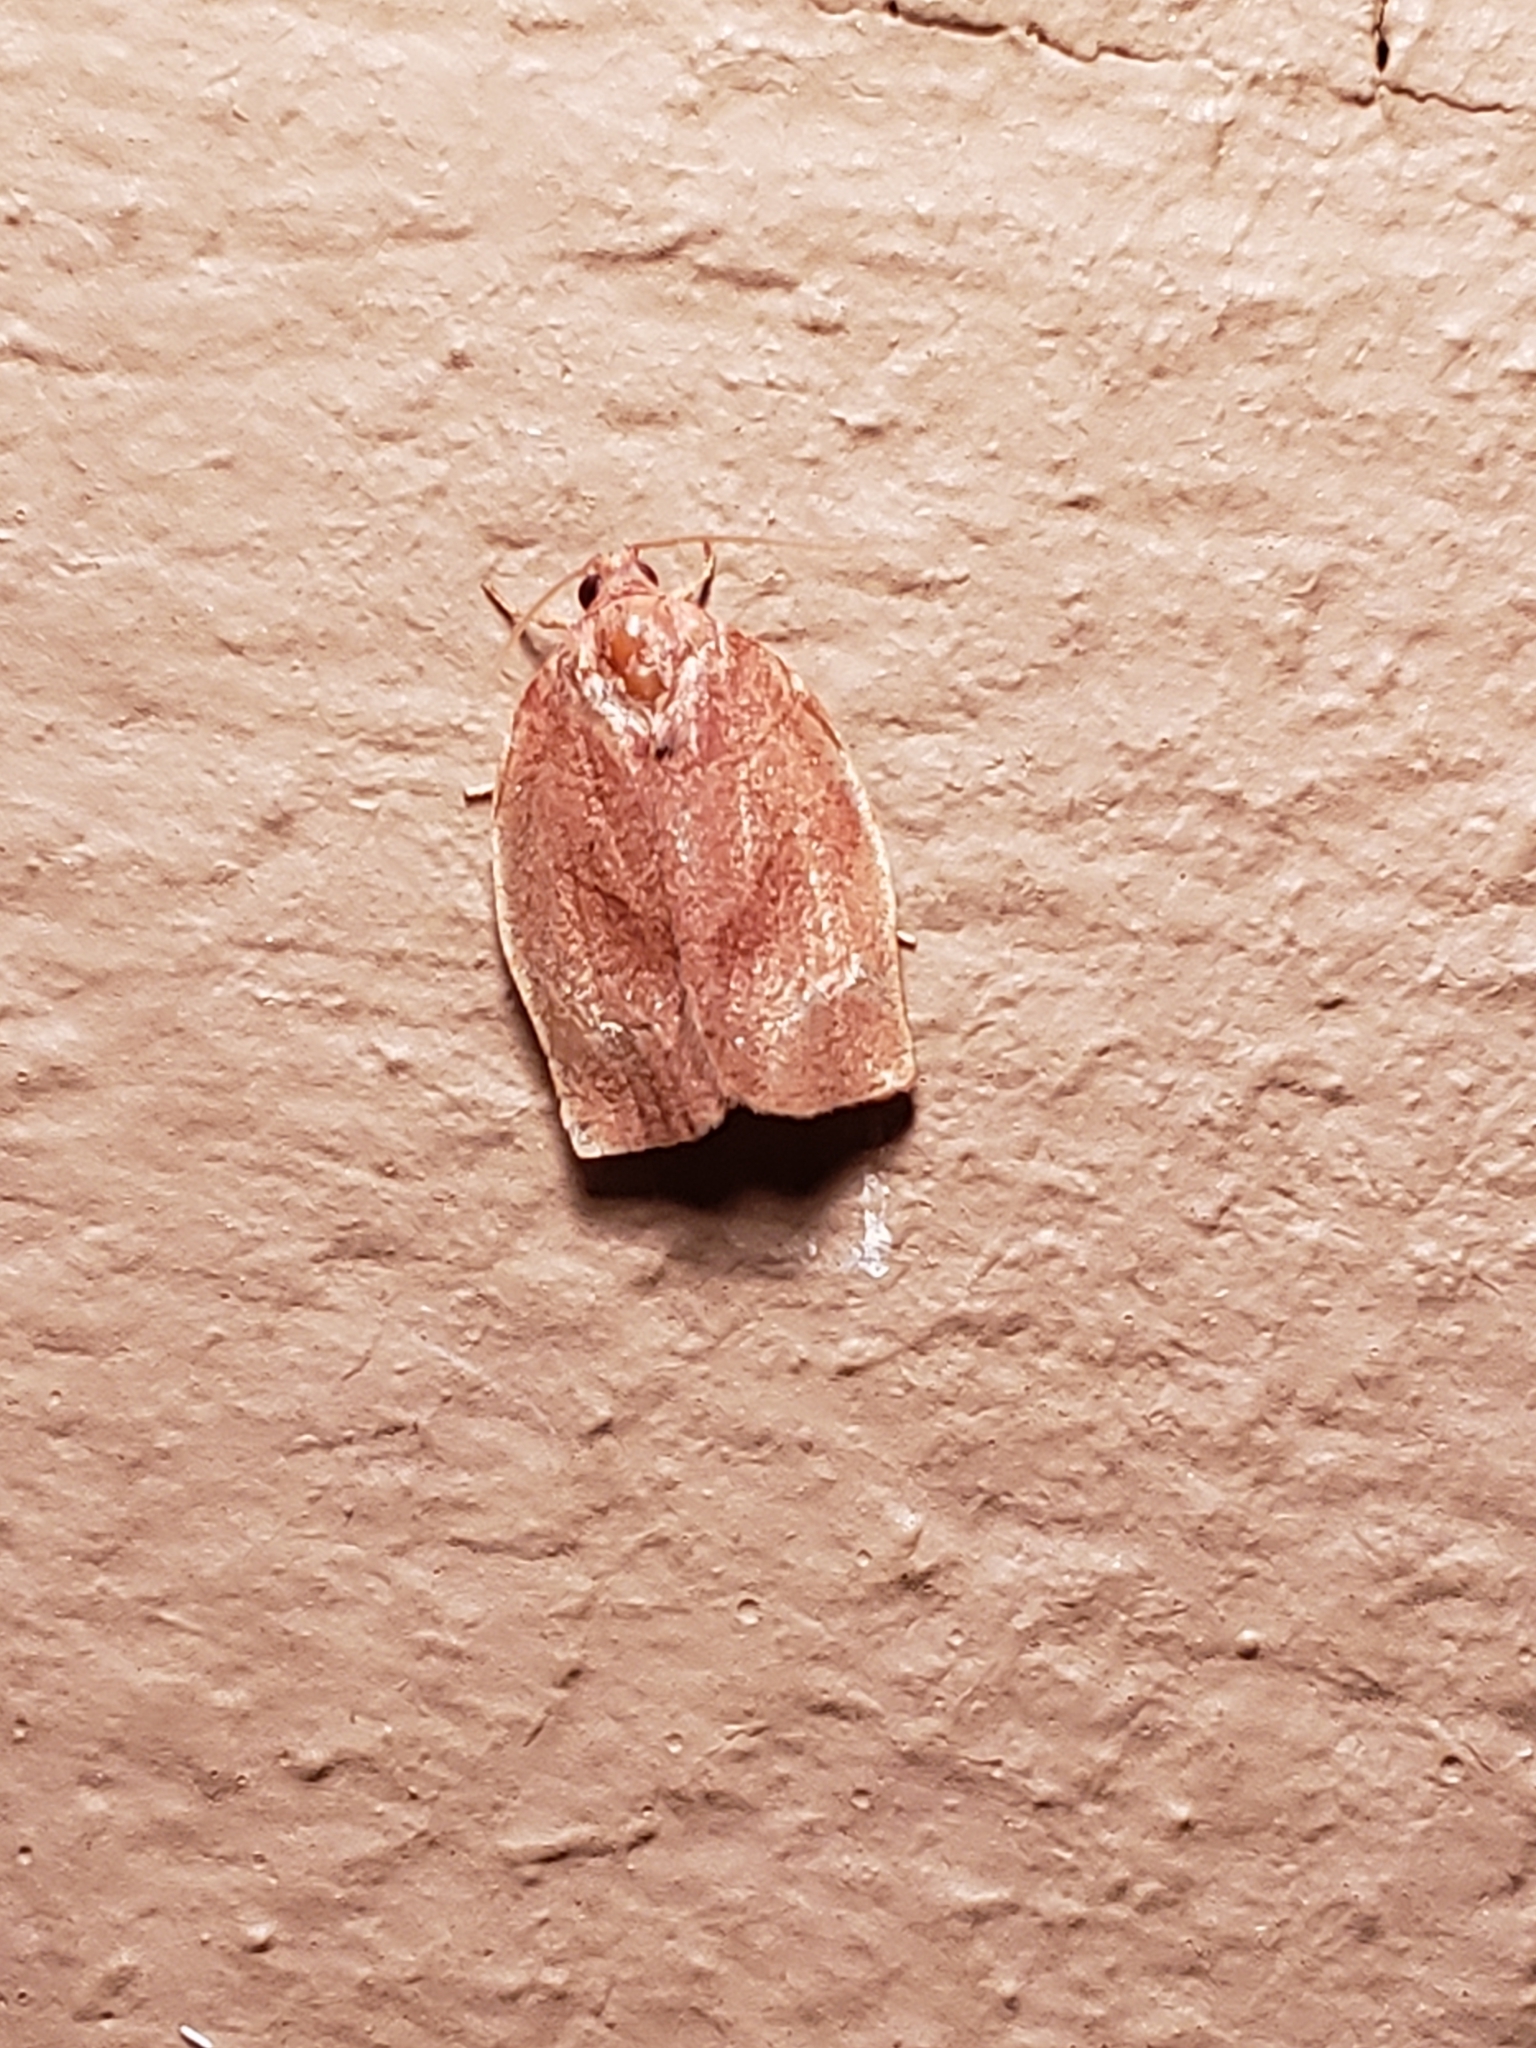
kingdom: Animalia
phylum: Arthropoda
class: Insecta
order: Lepidoptera
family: Tortricidae
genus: Choristoneura
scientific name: Choristoneura rosaceana
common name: Oblique-banded leafroller moth
